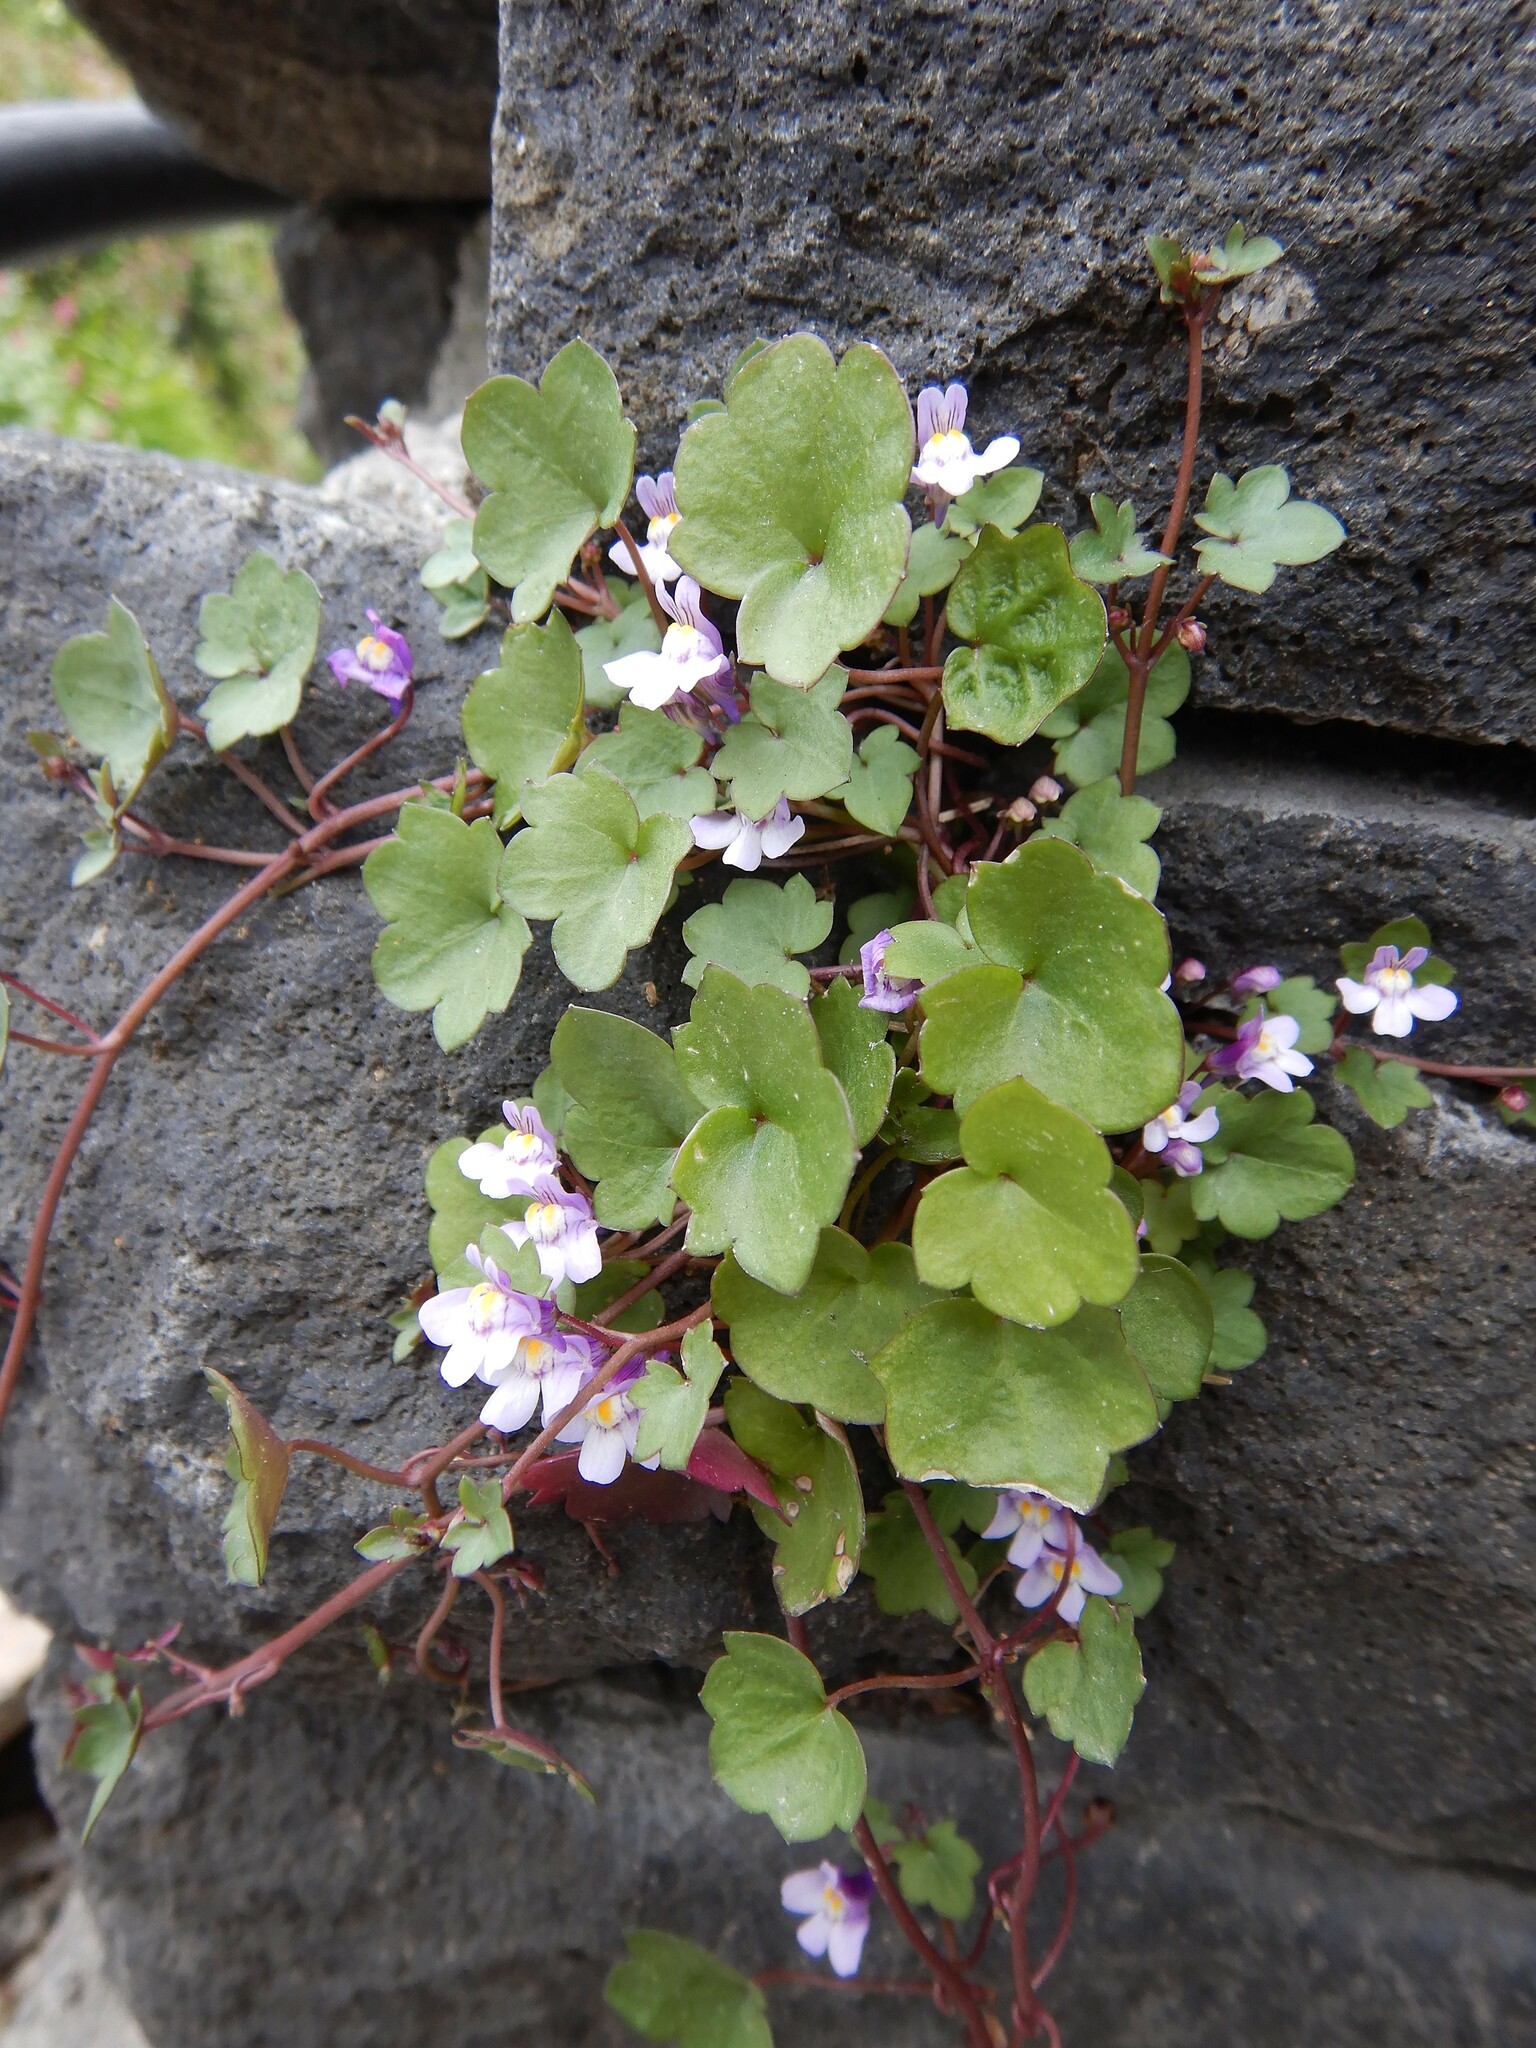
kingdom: Plantae
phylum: Tracheophyta
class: Magnoliopsida
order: Lamiales
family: Plantaginaceae
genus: Cymbalaria
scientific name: Cymbalaria muralis
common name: Ivy-leaved toadflax
